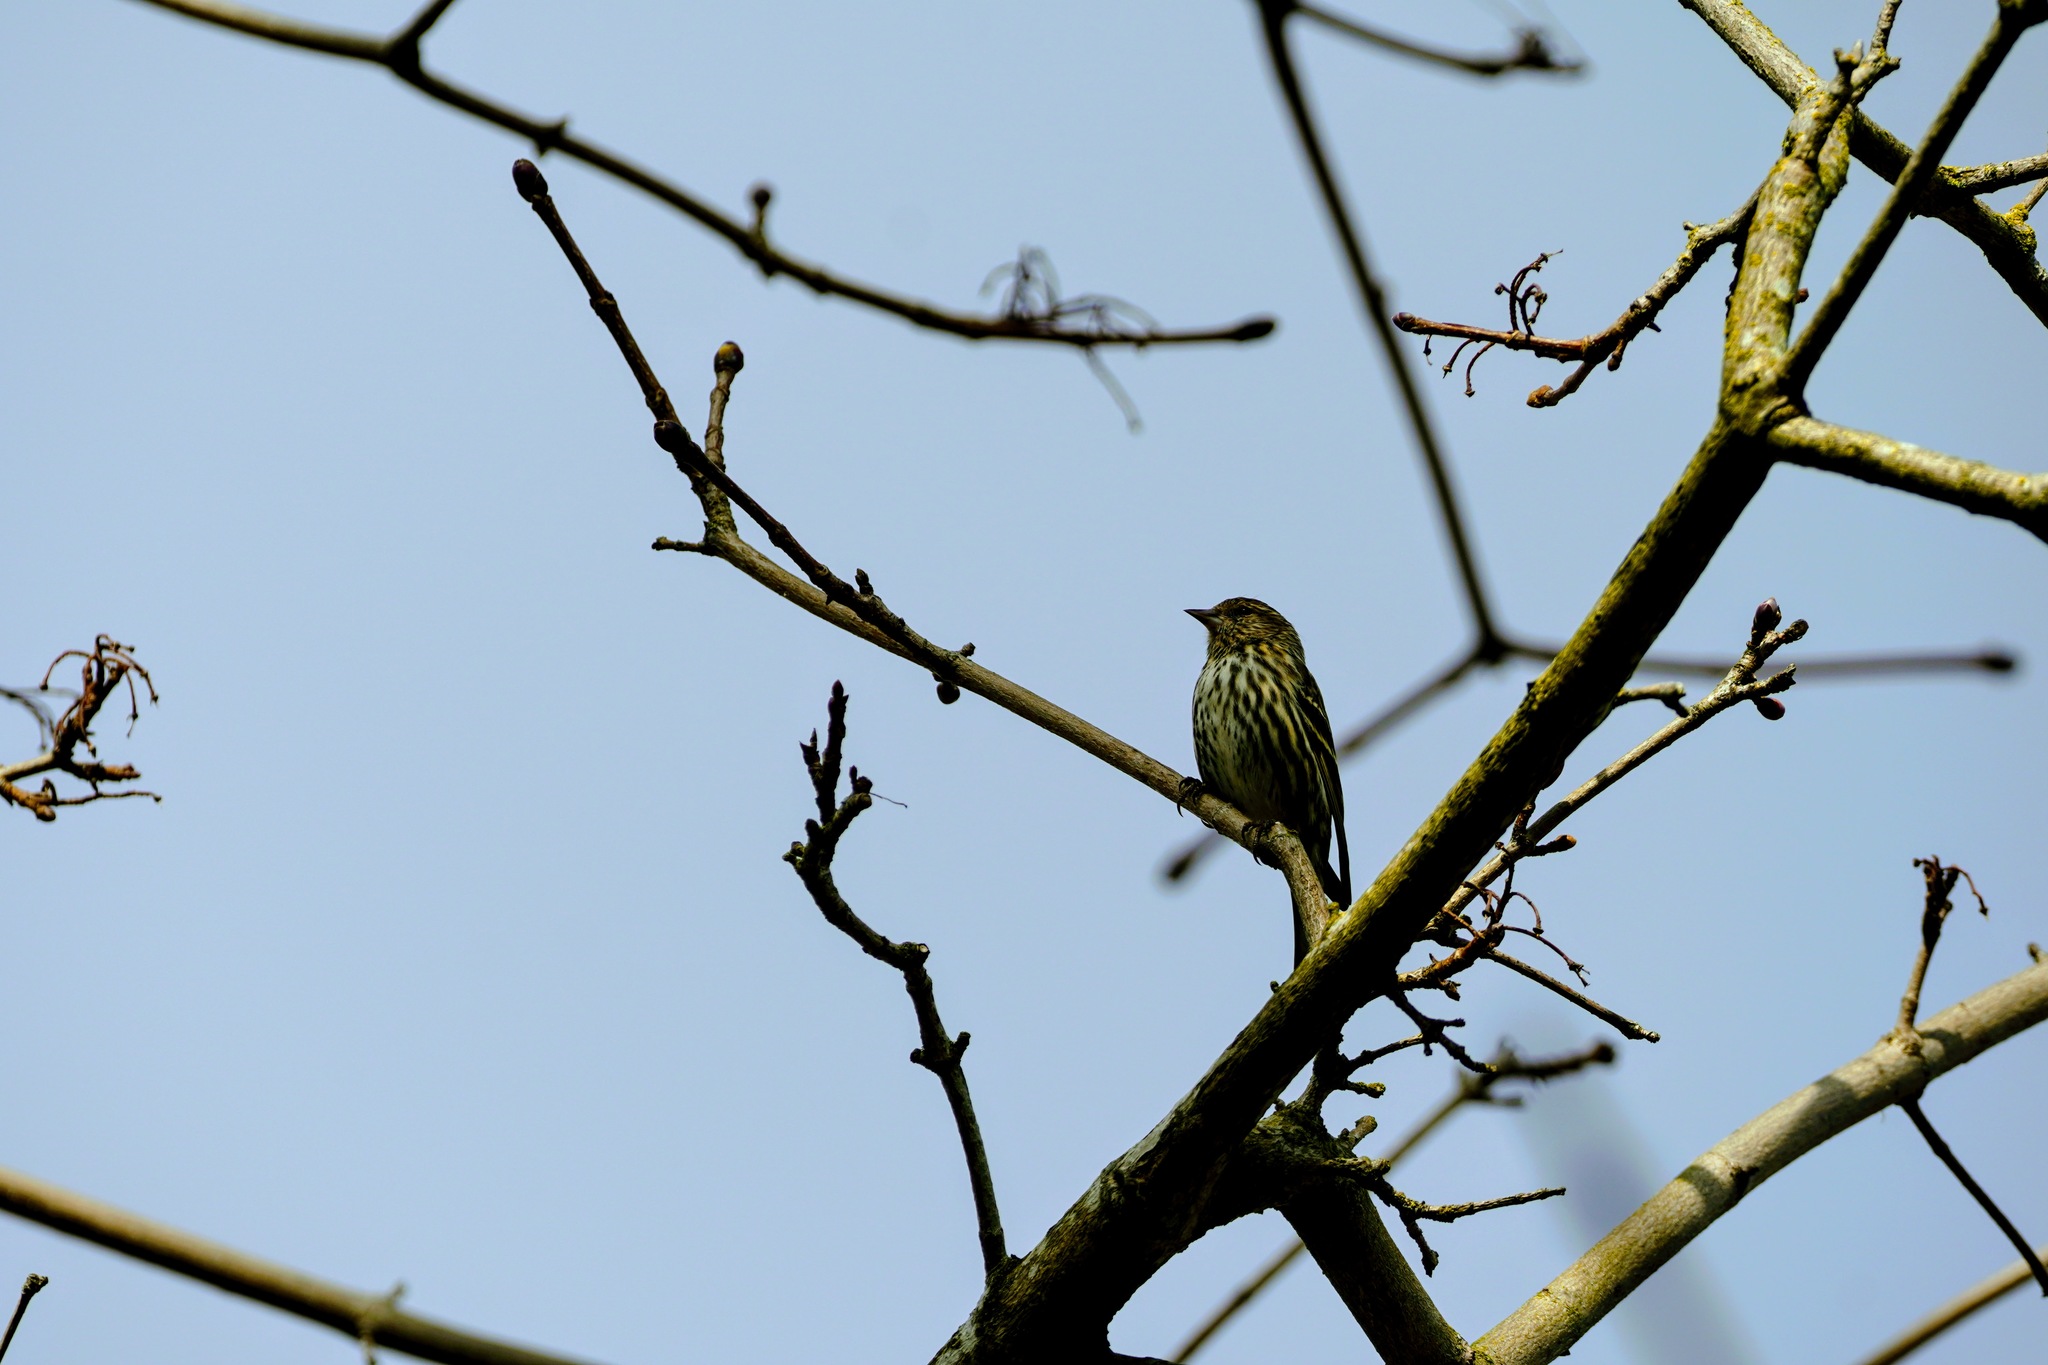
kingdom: Animalia
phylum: Chordata
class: Aves
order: Passeriformes
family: Fringillidae
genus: Spinus
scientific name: Spinus pinus
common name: Pine siskin
